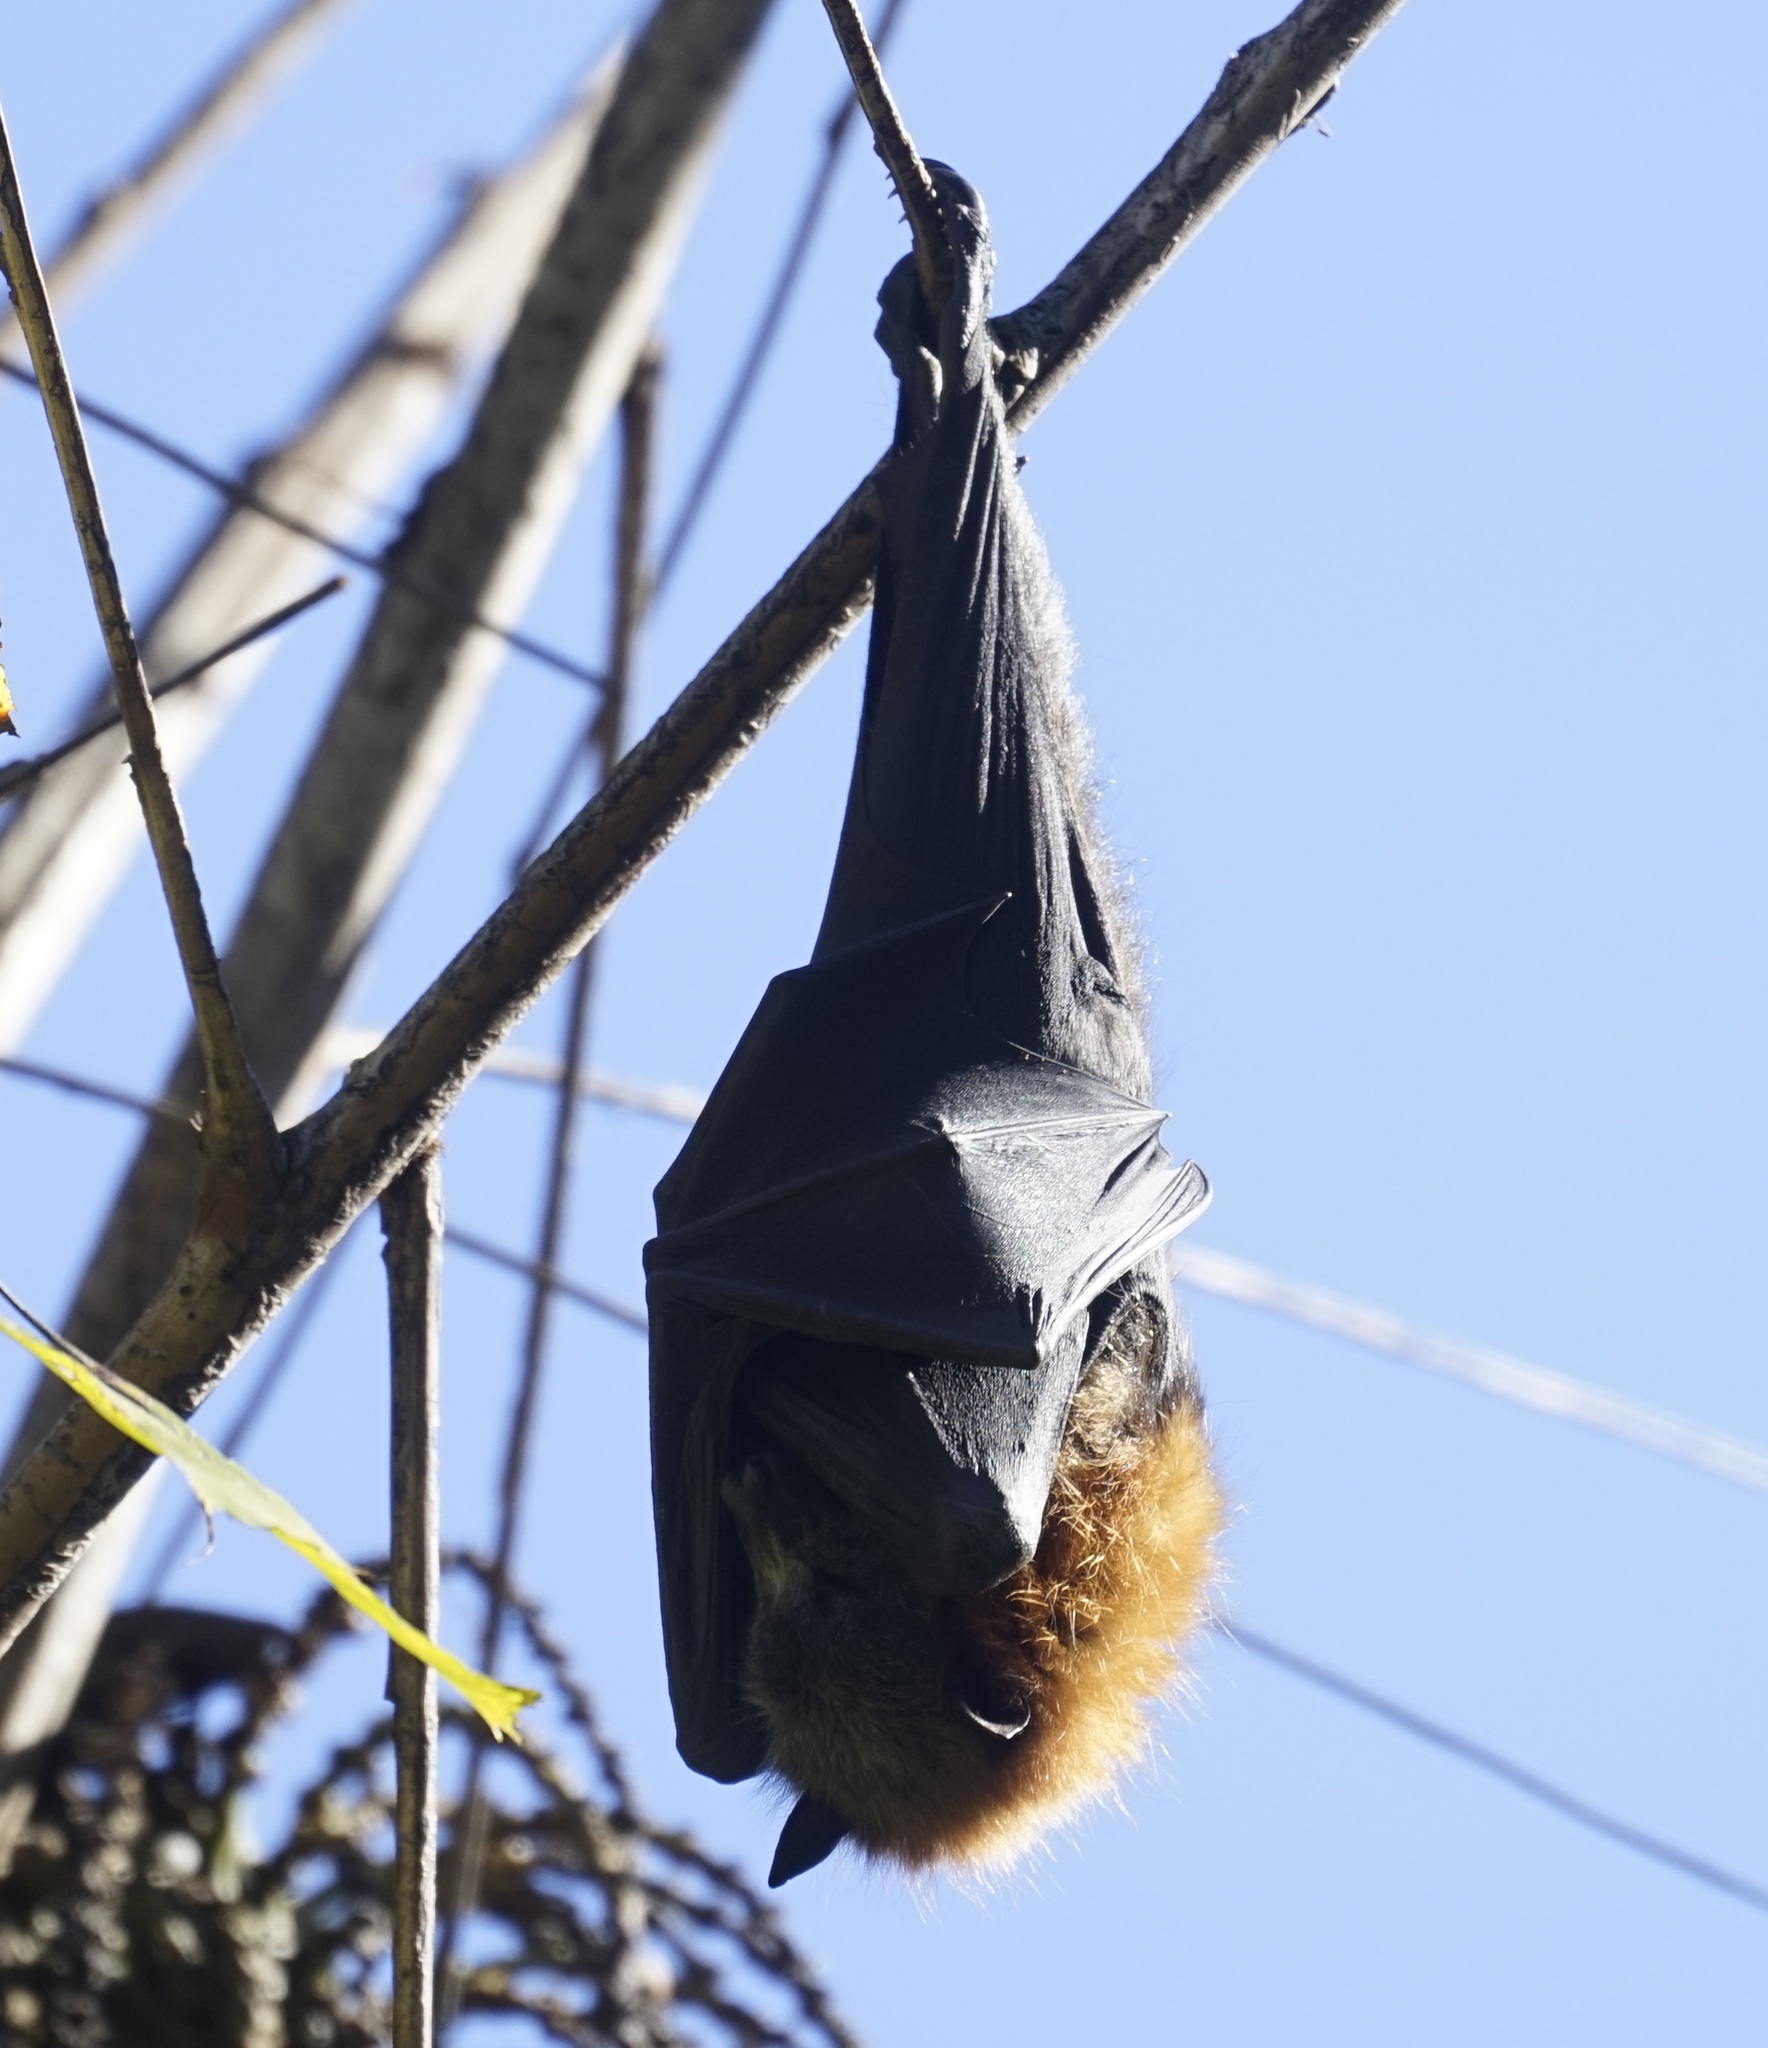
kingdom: Animalia
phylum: Chordata
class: Mammalia
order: Chiroptera
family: Pteropodidae
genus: Pteropus
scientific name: Pteropus poliocephalus
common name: Gray-headed flying fox
